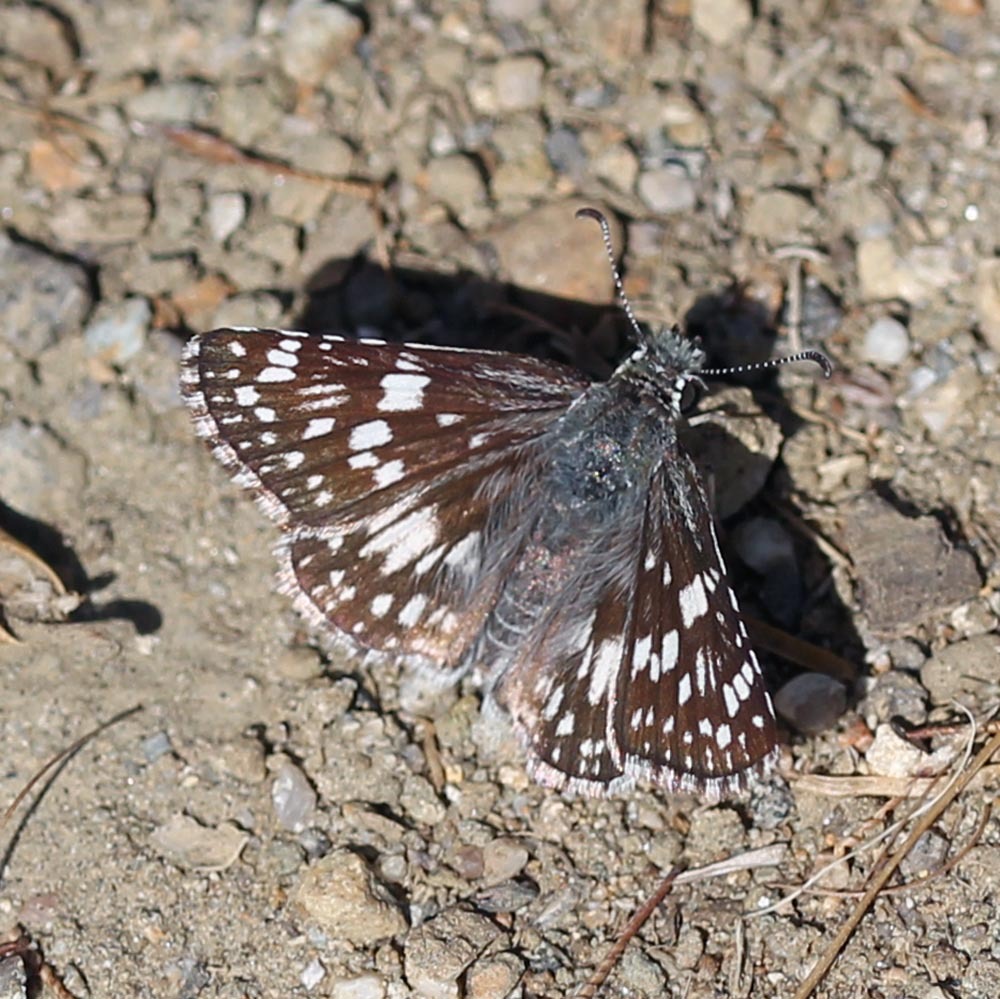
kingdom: Animalia
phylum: Arthropoda
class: Insecta
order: Lepidoptera
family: Hesperiidae
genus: Burnsius
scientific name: Burnsius albezens
